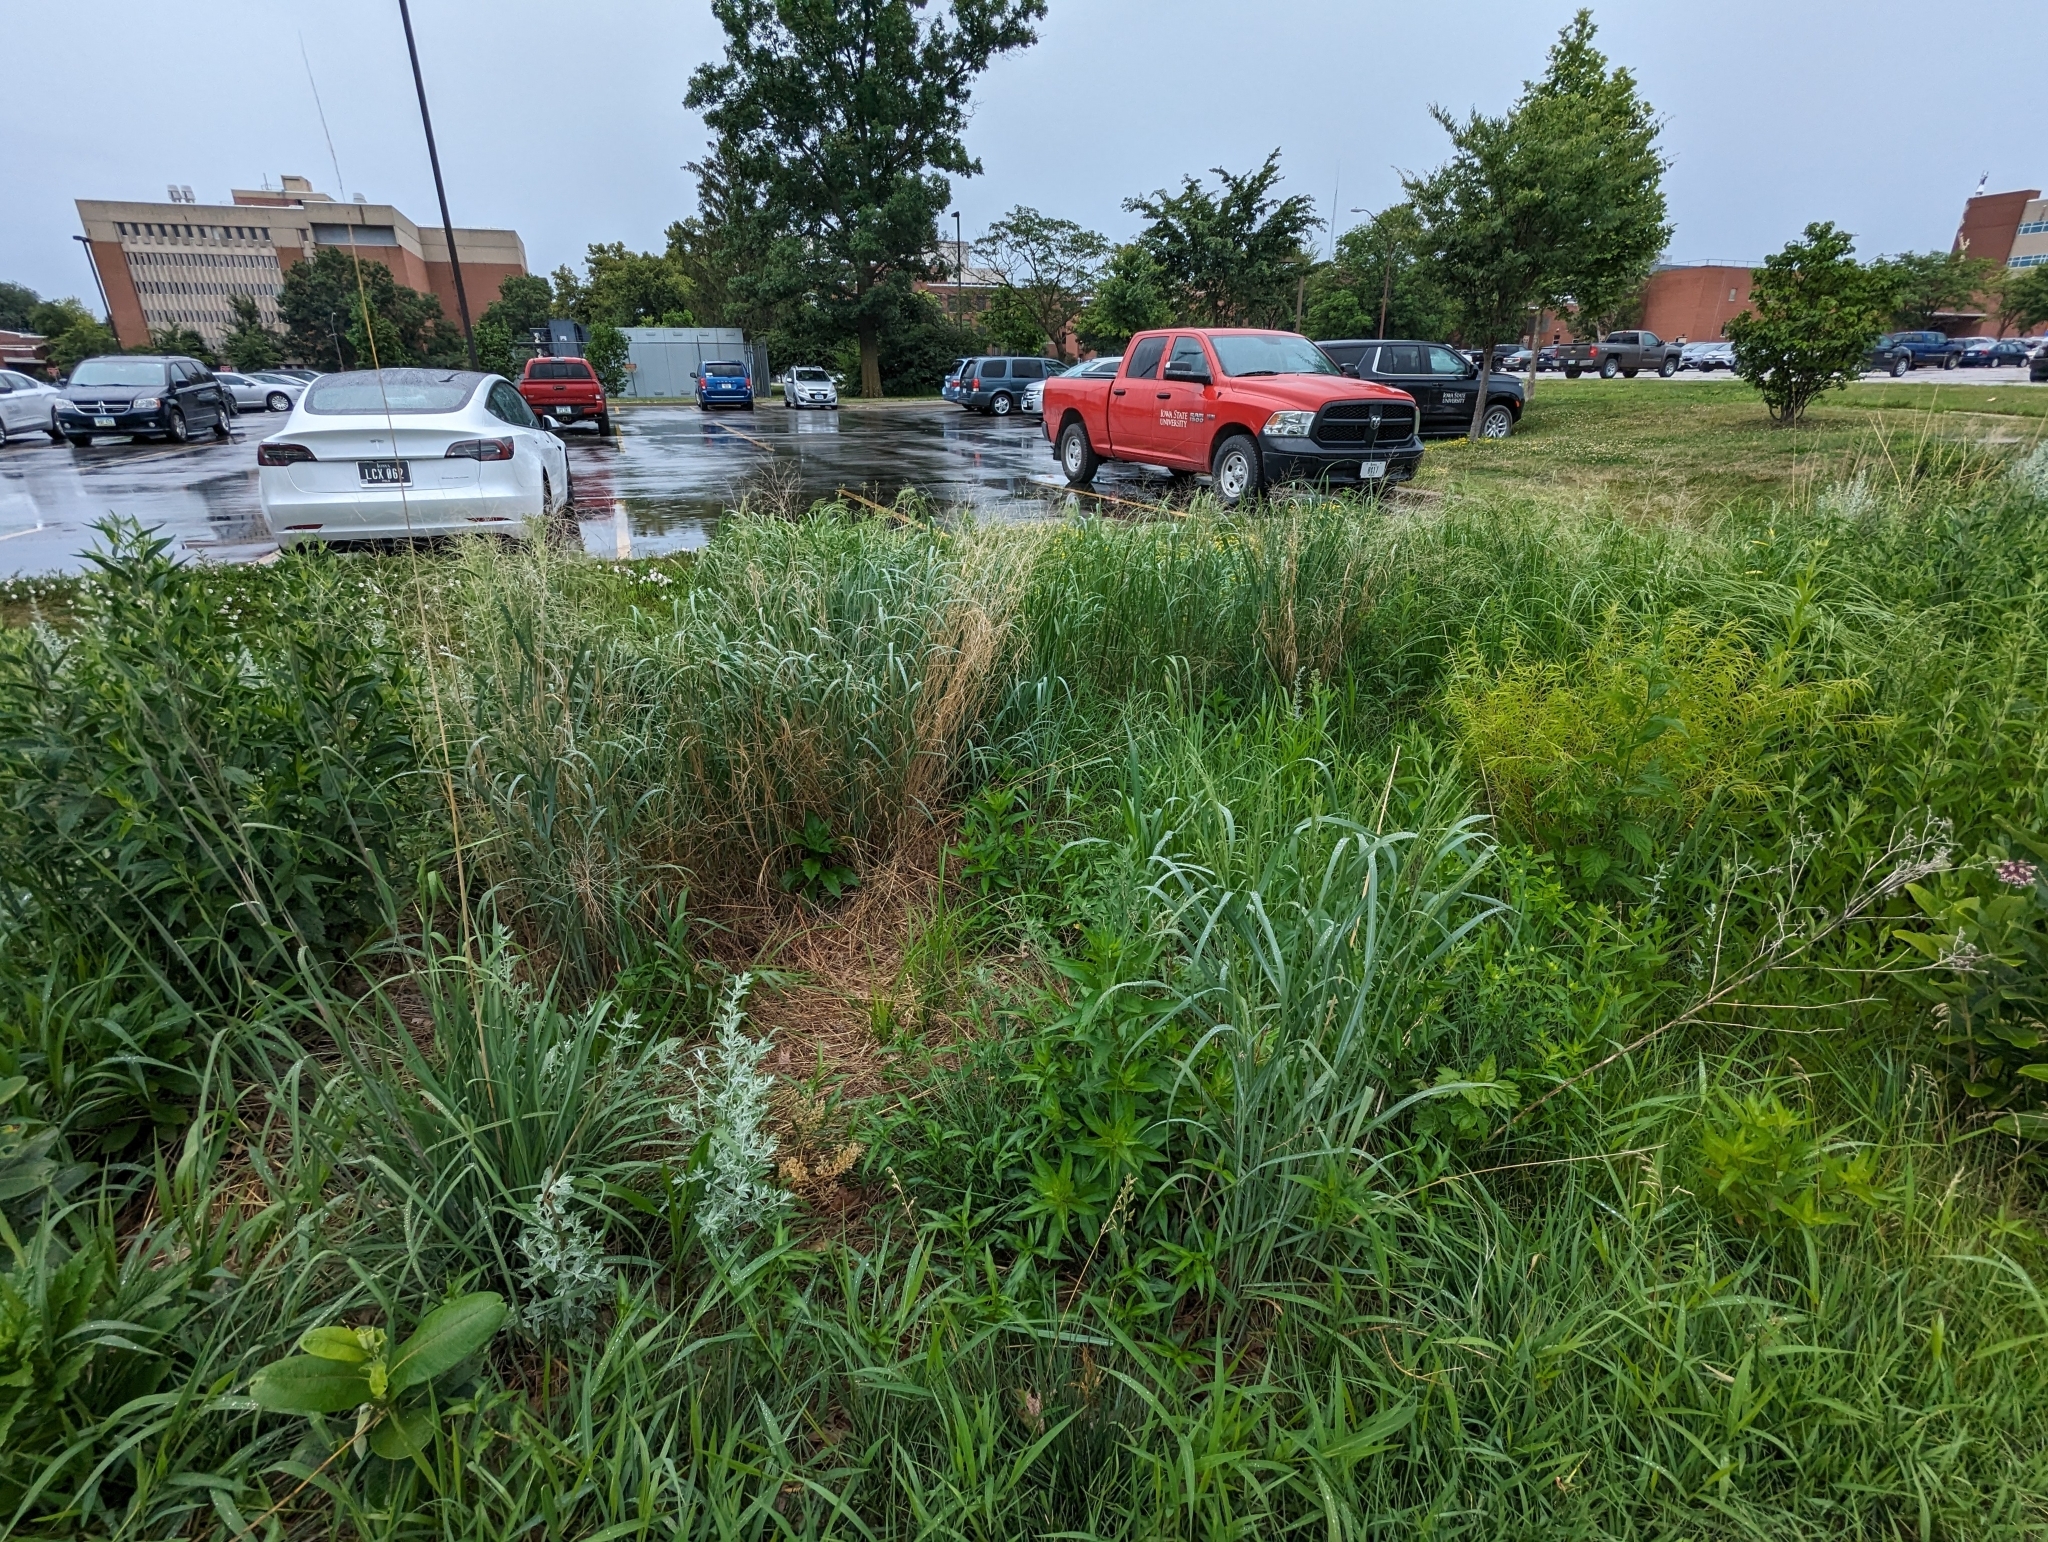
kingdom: Plantae
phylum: Tracheophyta
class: Magnoliopsida
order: Brassicales
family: Brassicaceae
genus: Thlaspi
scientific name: Thlaspi arvense
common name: Field pennycress
